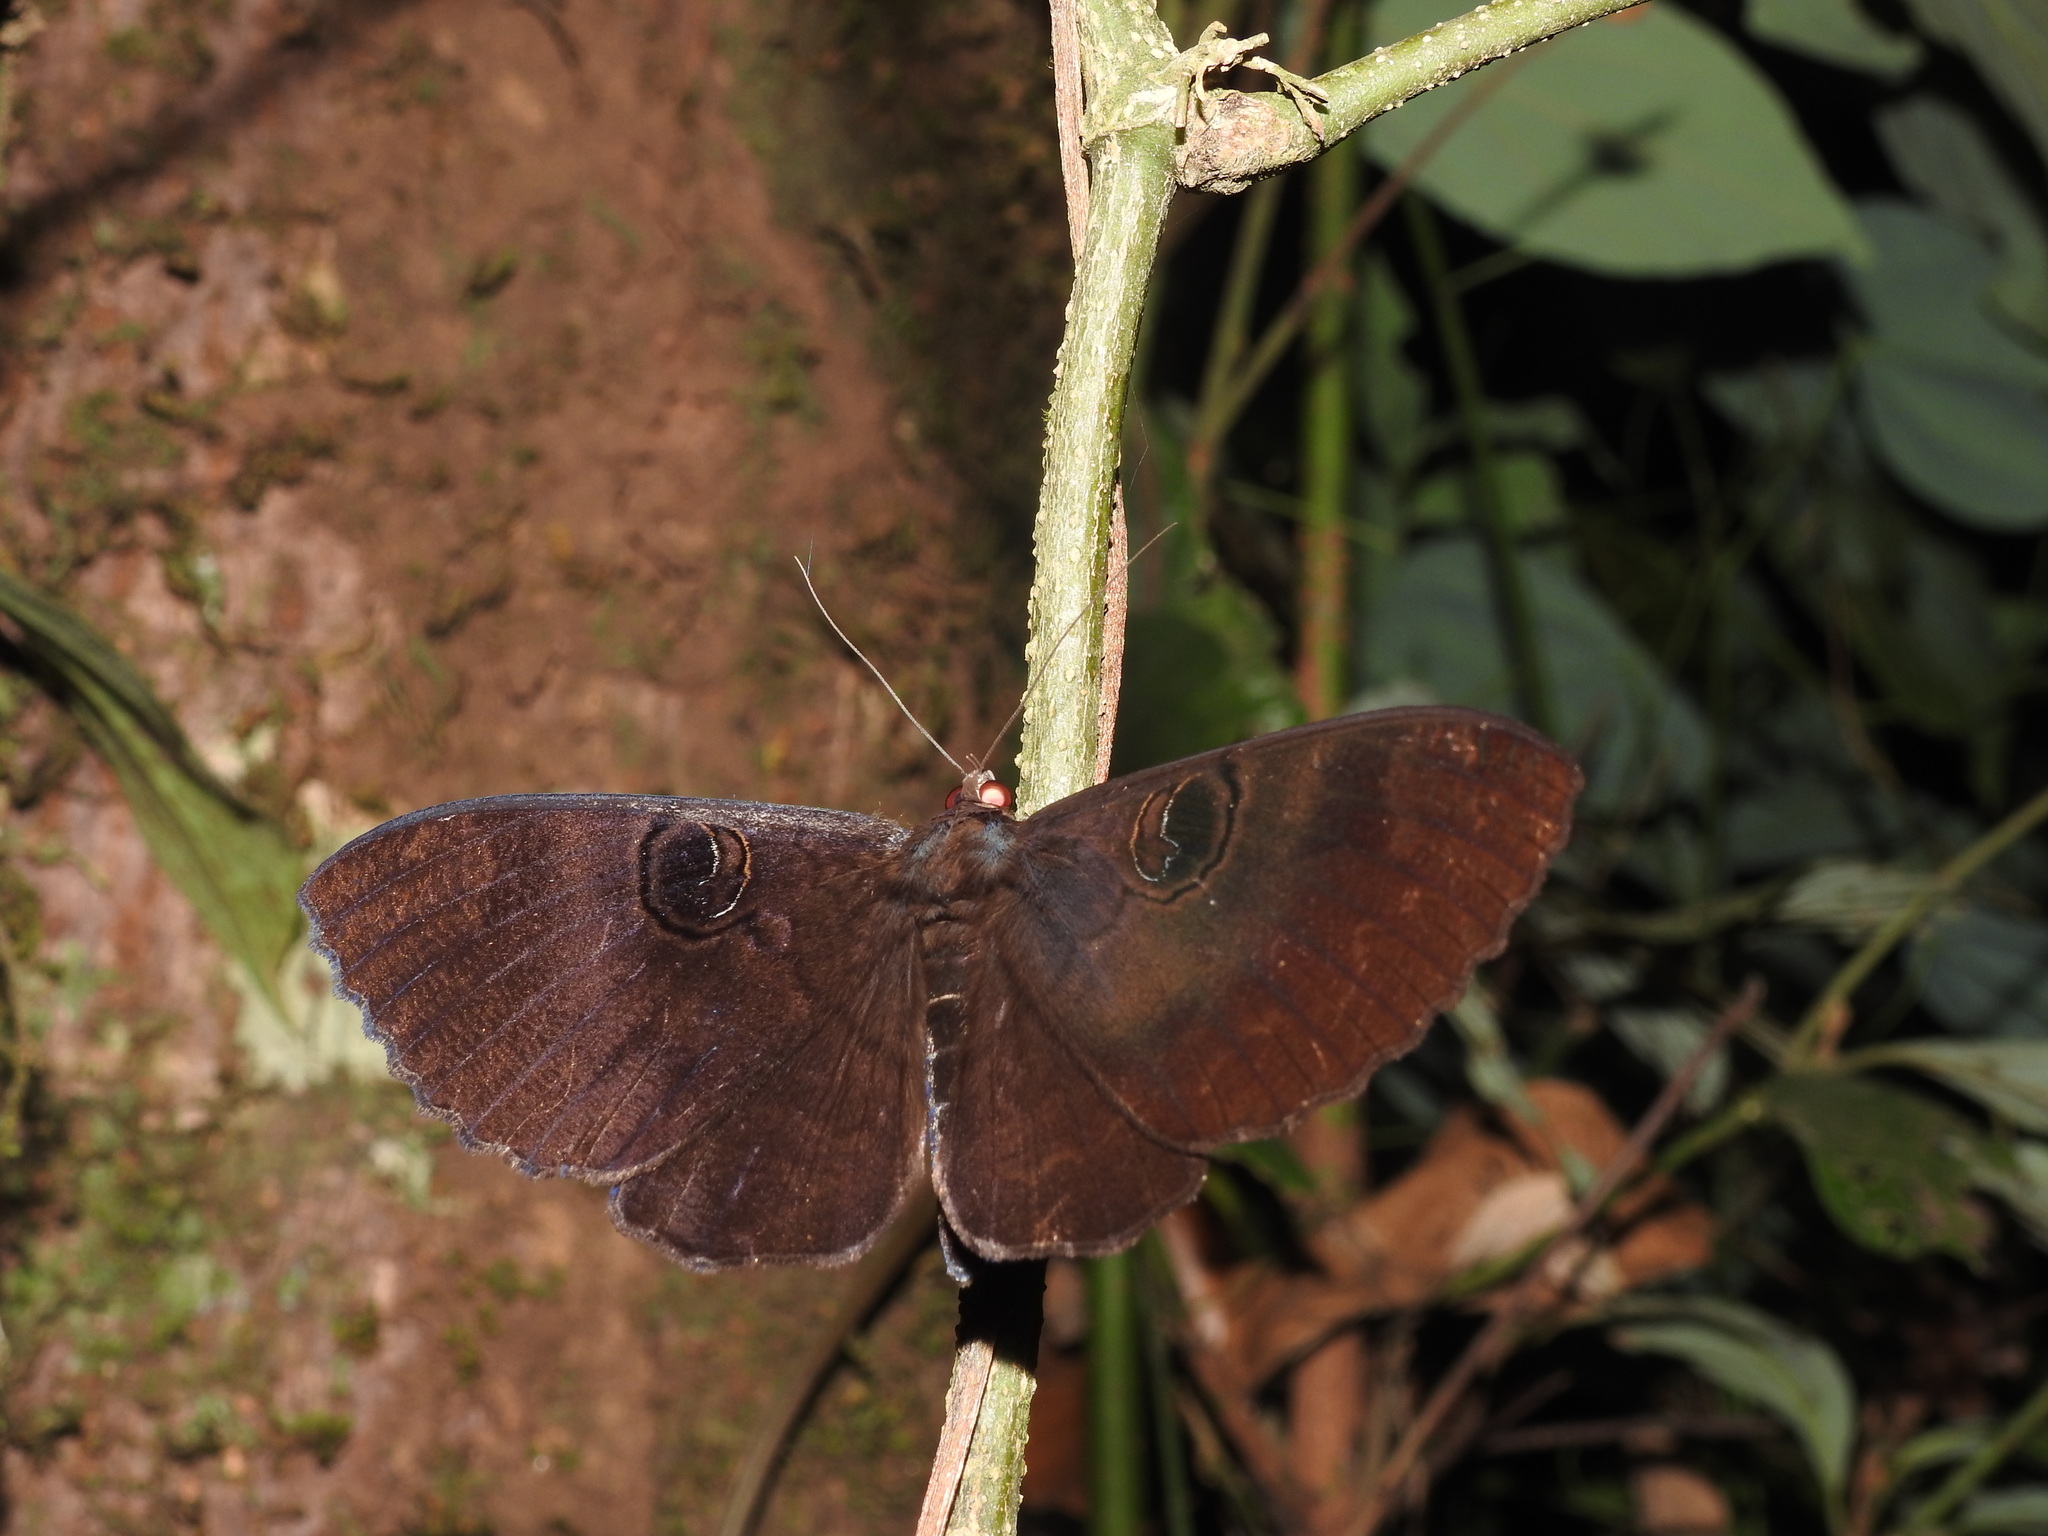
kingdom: Animalia
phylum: Arthropoda
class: Insecta
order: Lepidoptera
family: Erebidae
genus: Erebus
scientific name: Erebus caprimulgus
